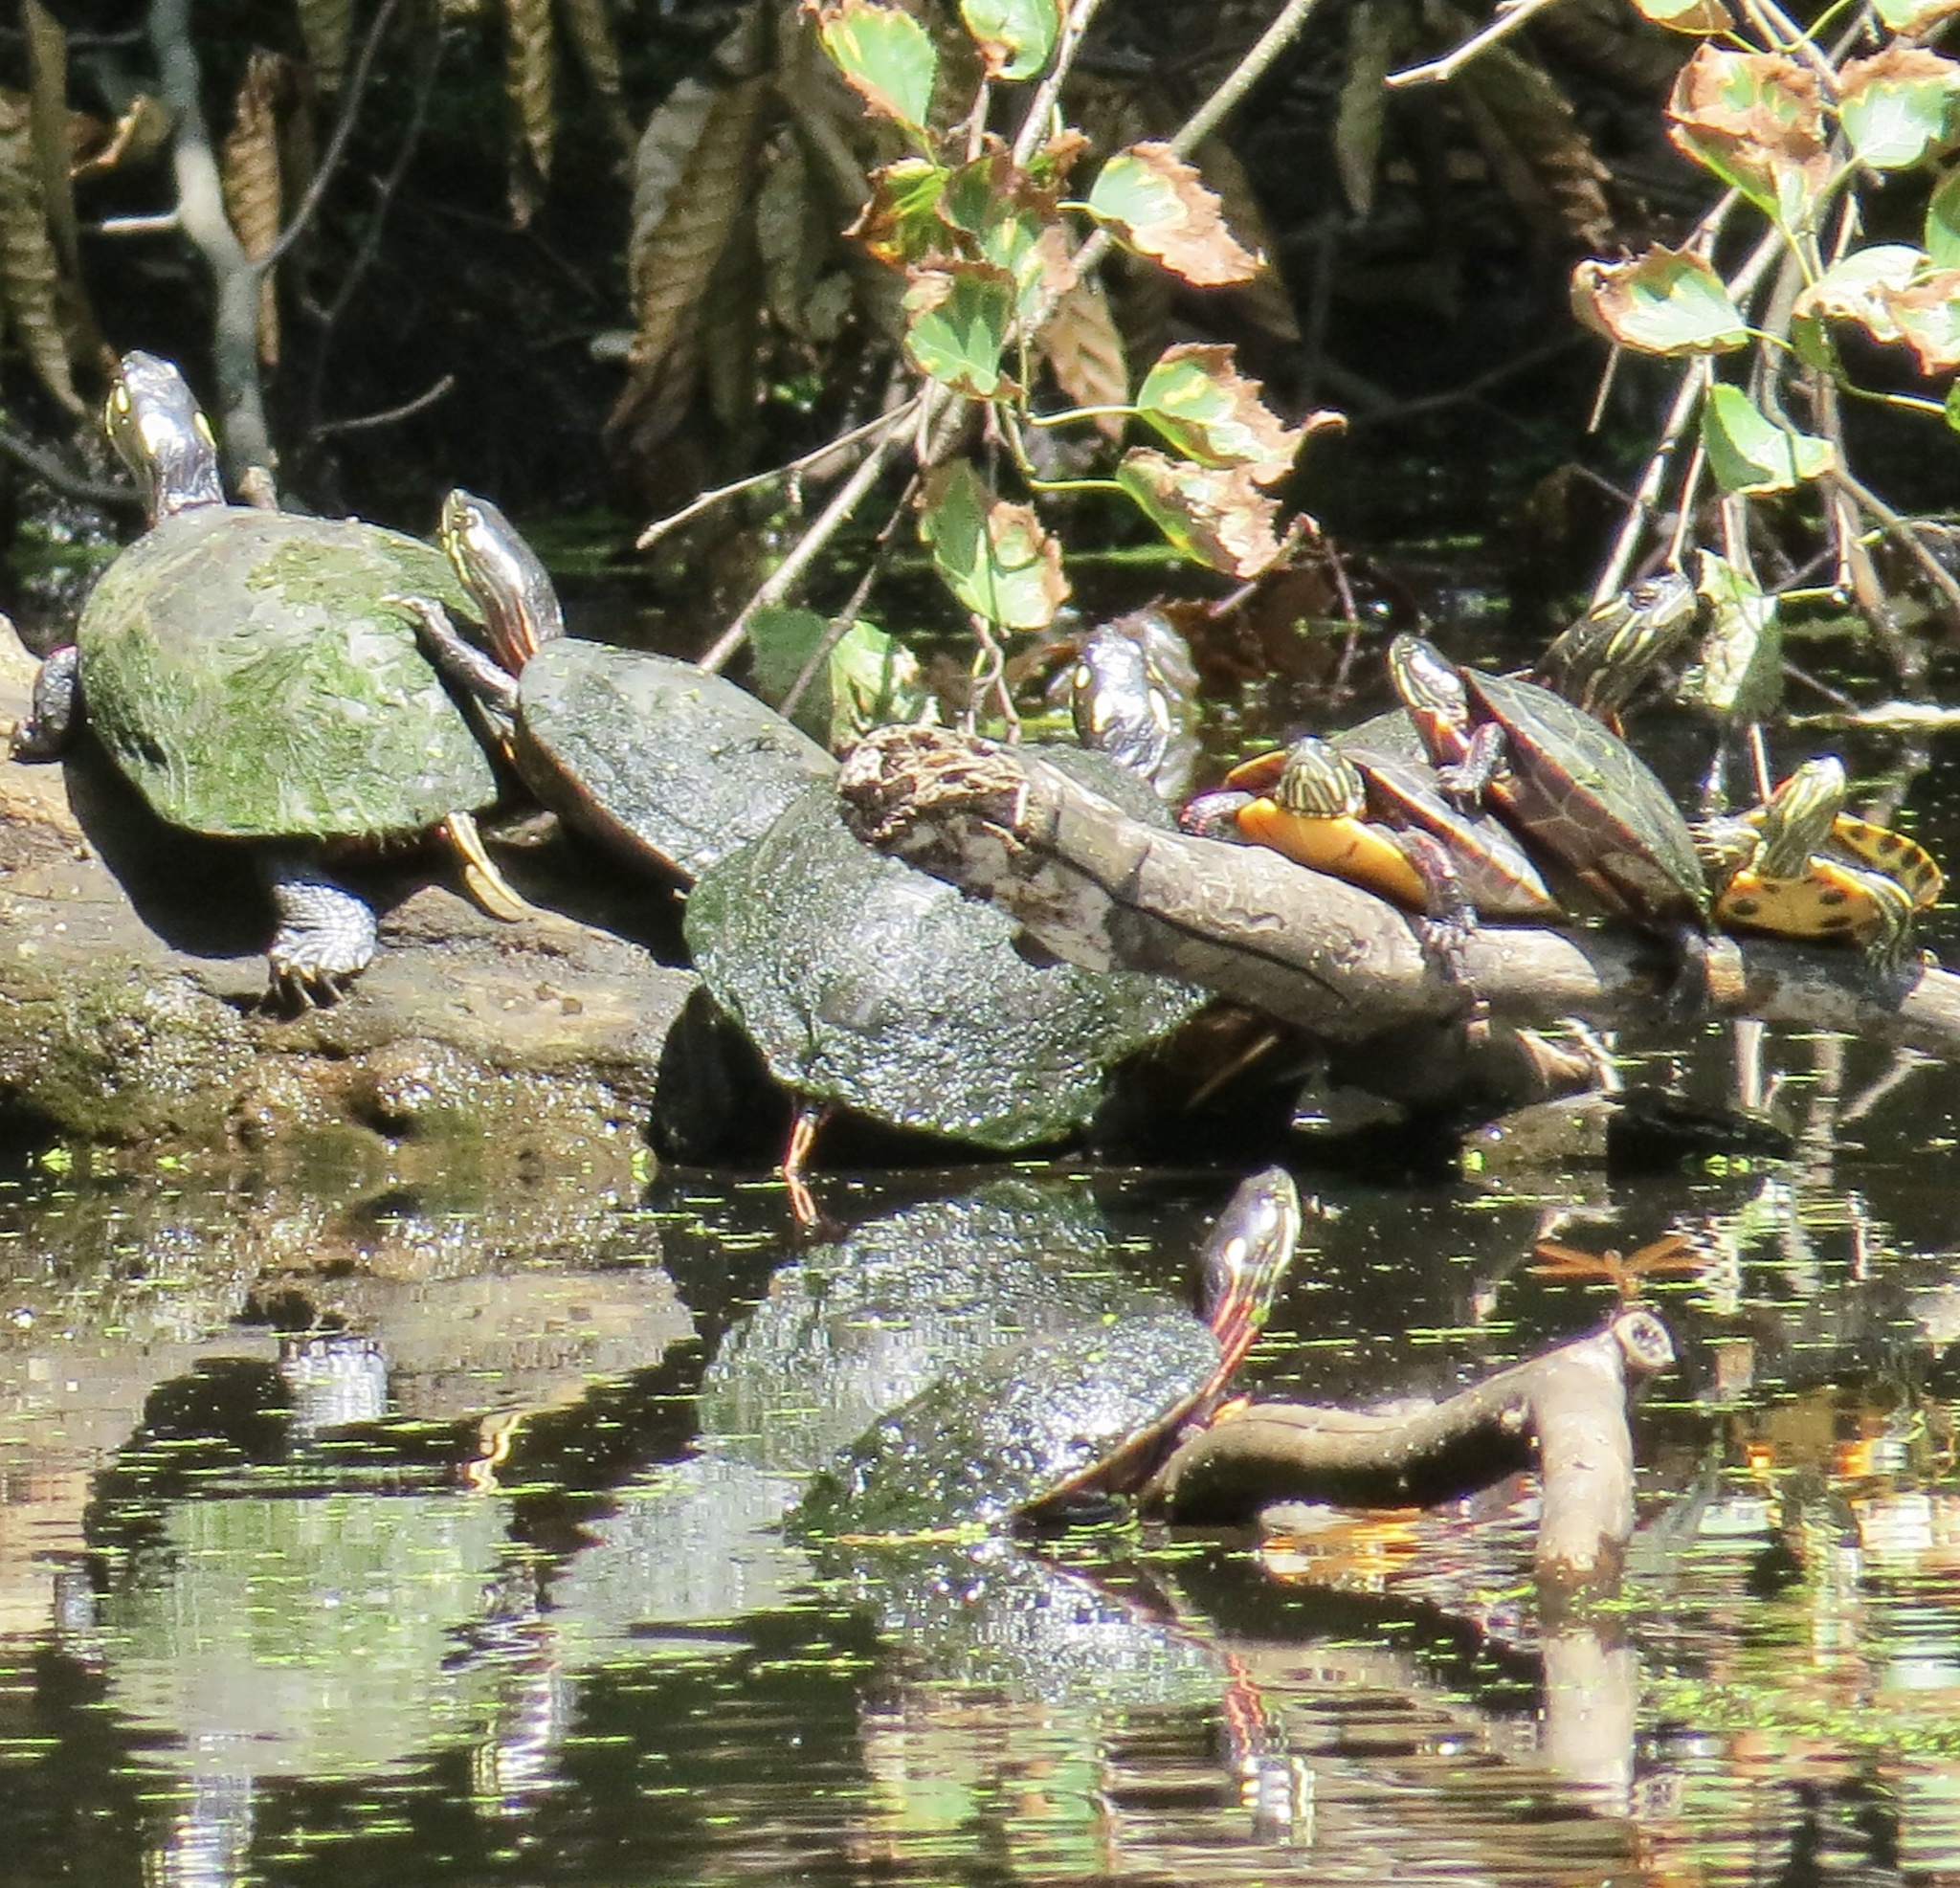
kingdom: Animalia
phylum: Chordata
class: Testudines
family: Emydidae
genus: Chrysemys
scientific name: Chrysemys picta
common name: Painted turtle
